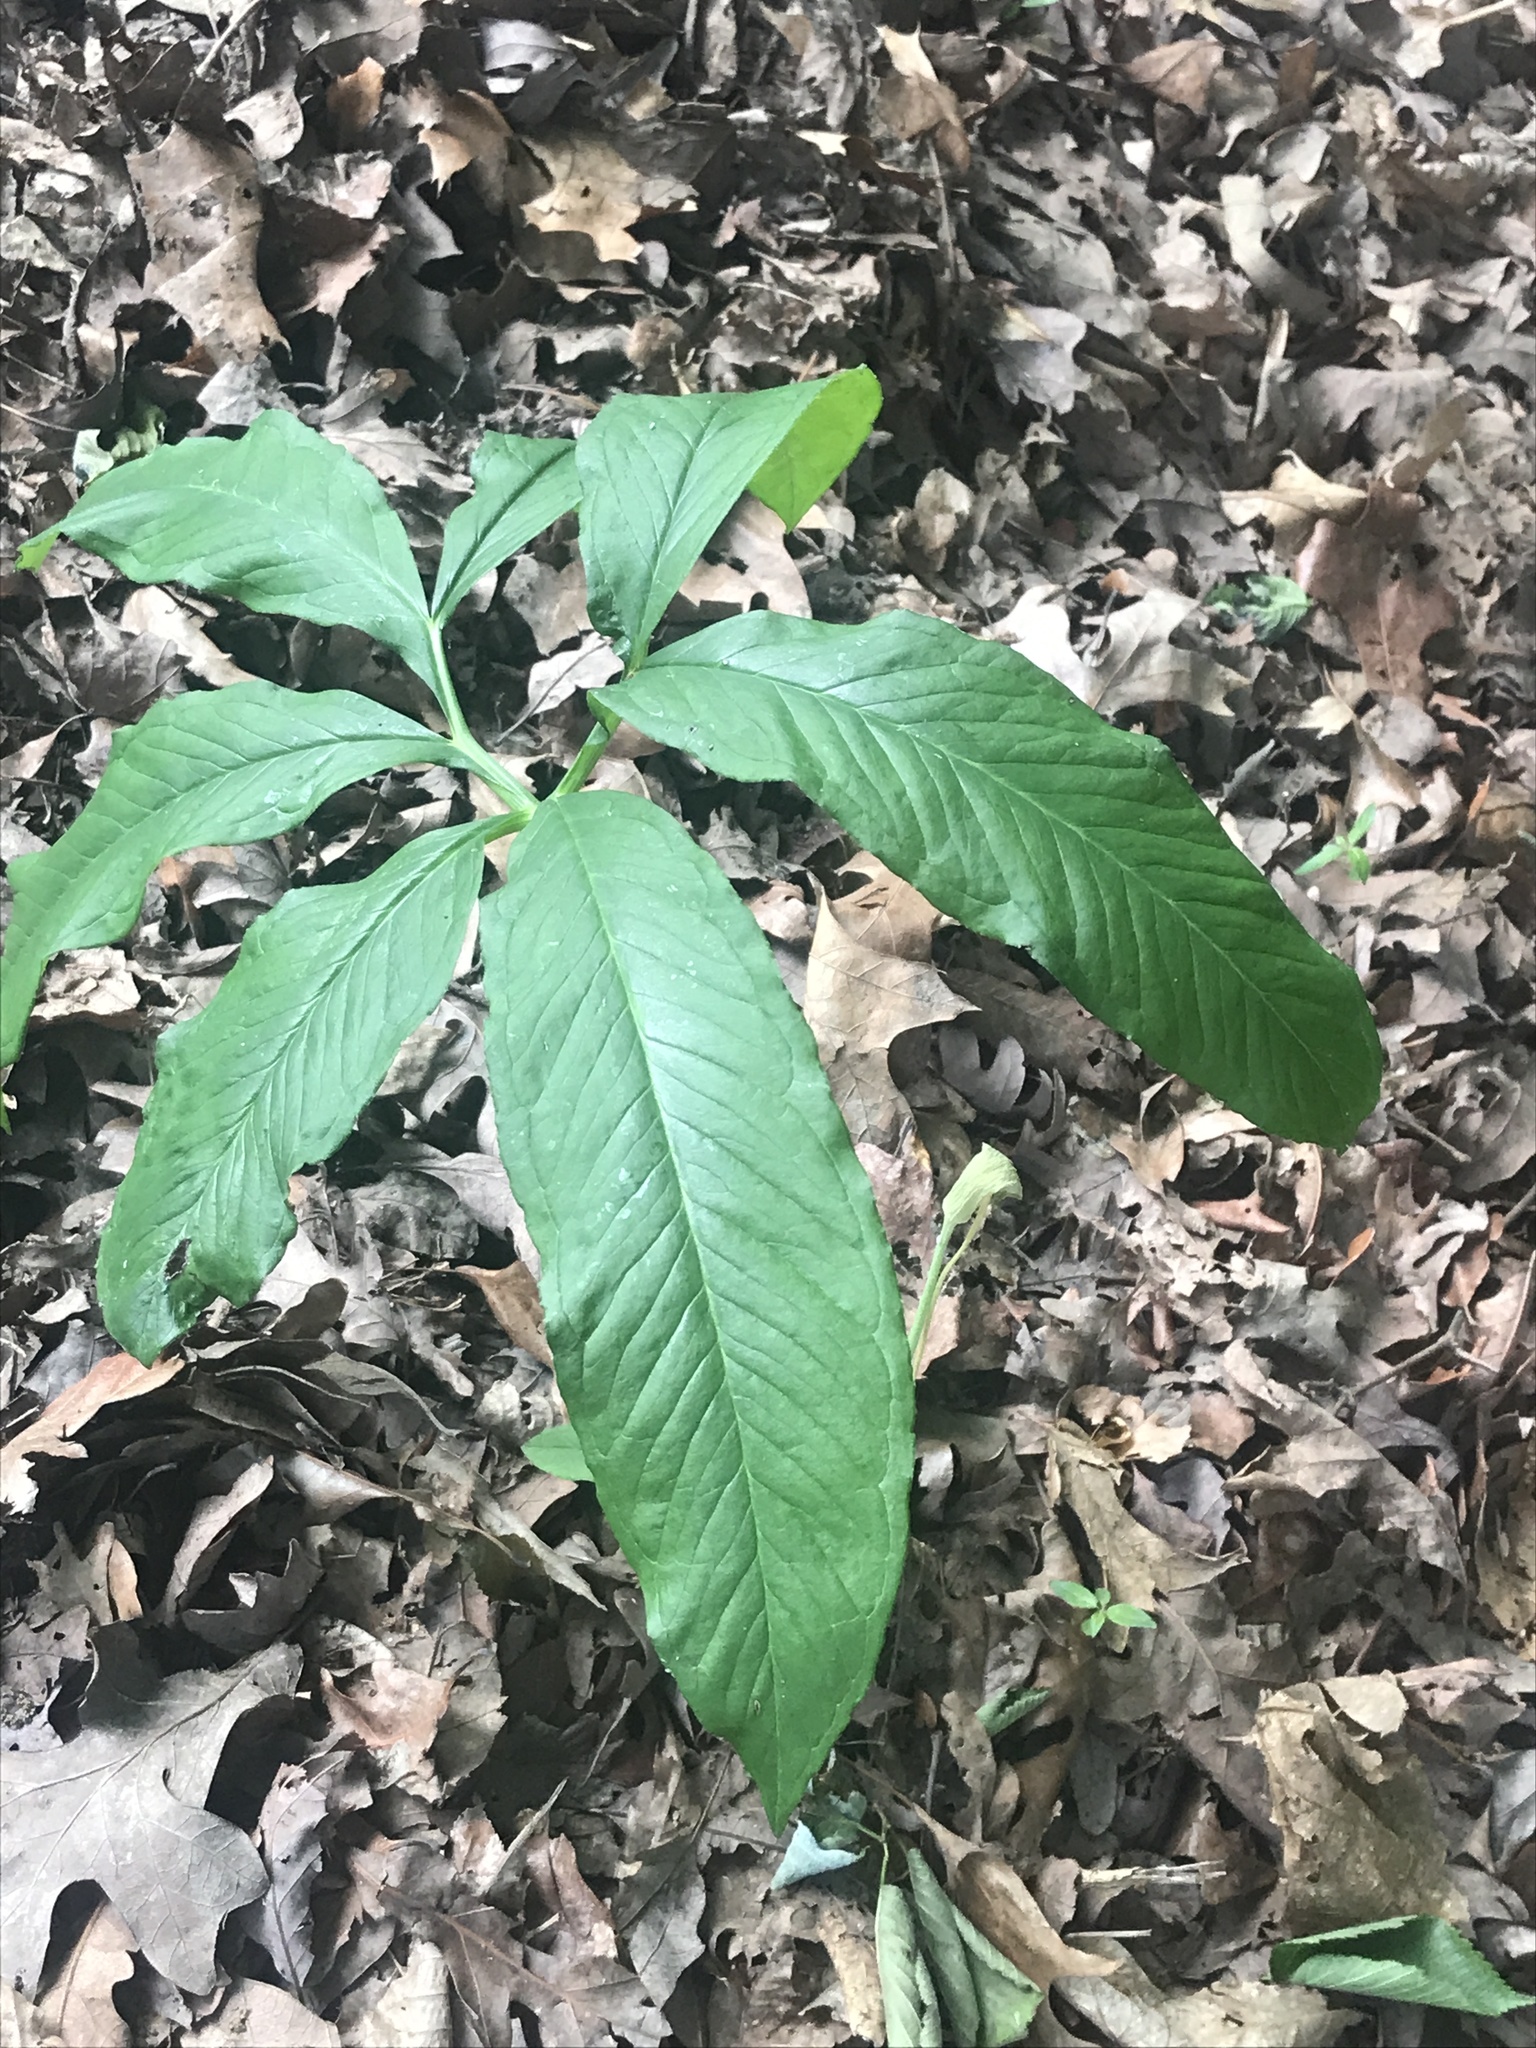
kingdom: Plantae
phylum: Tracheophyta
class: Liliopsida
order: Alismatales
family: Araceae
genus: Arisaema
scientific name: Arisaema dracontium
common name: Dragon-arum
